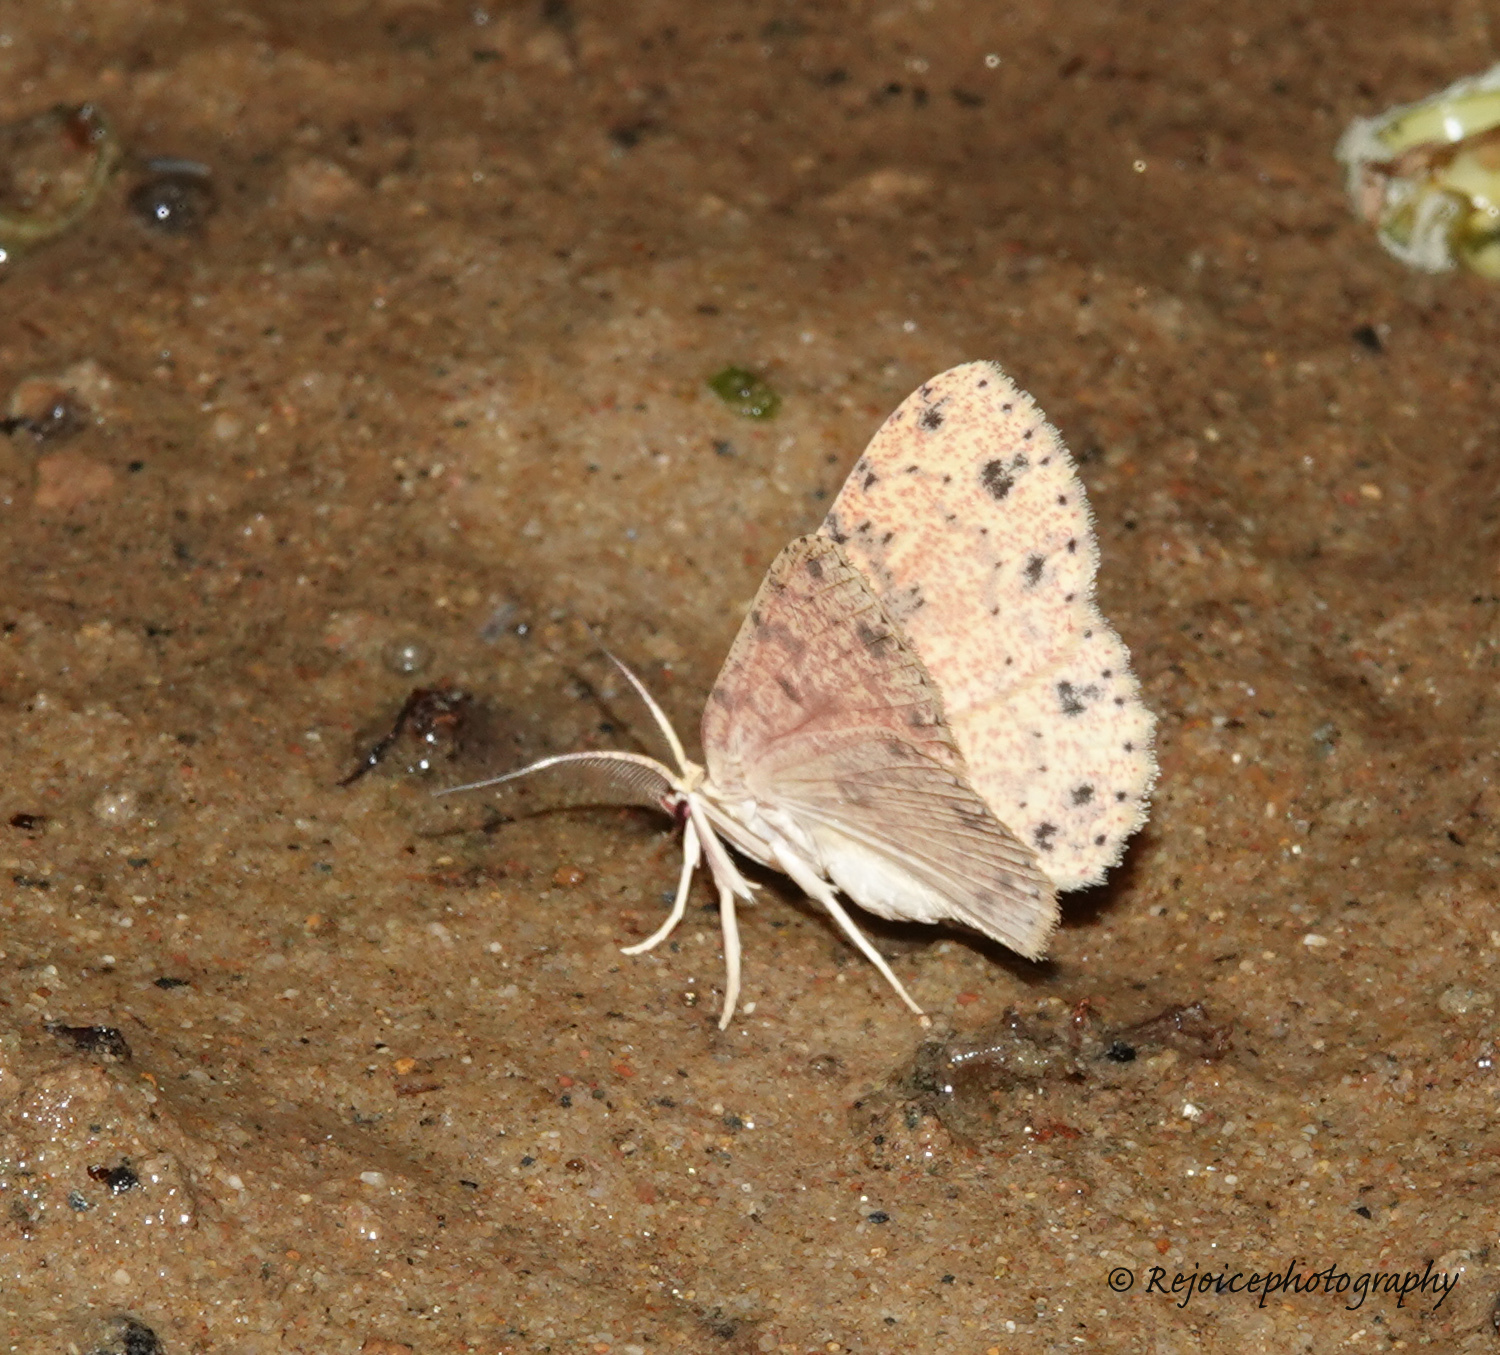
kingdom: Animalia
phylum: Arthropoda
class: Insecta
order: Lepidoptera
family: Geometridae
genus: Perixera
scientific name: Perixera jocosa
